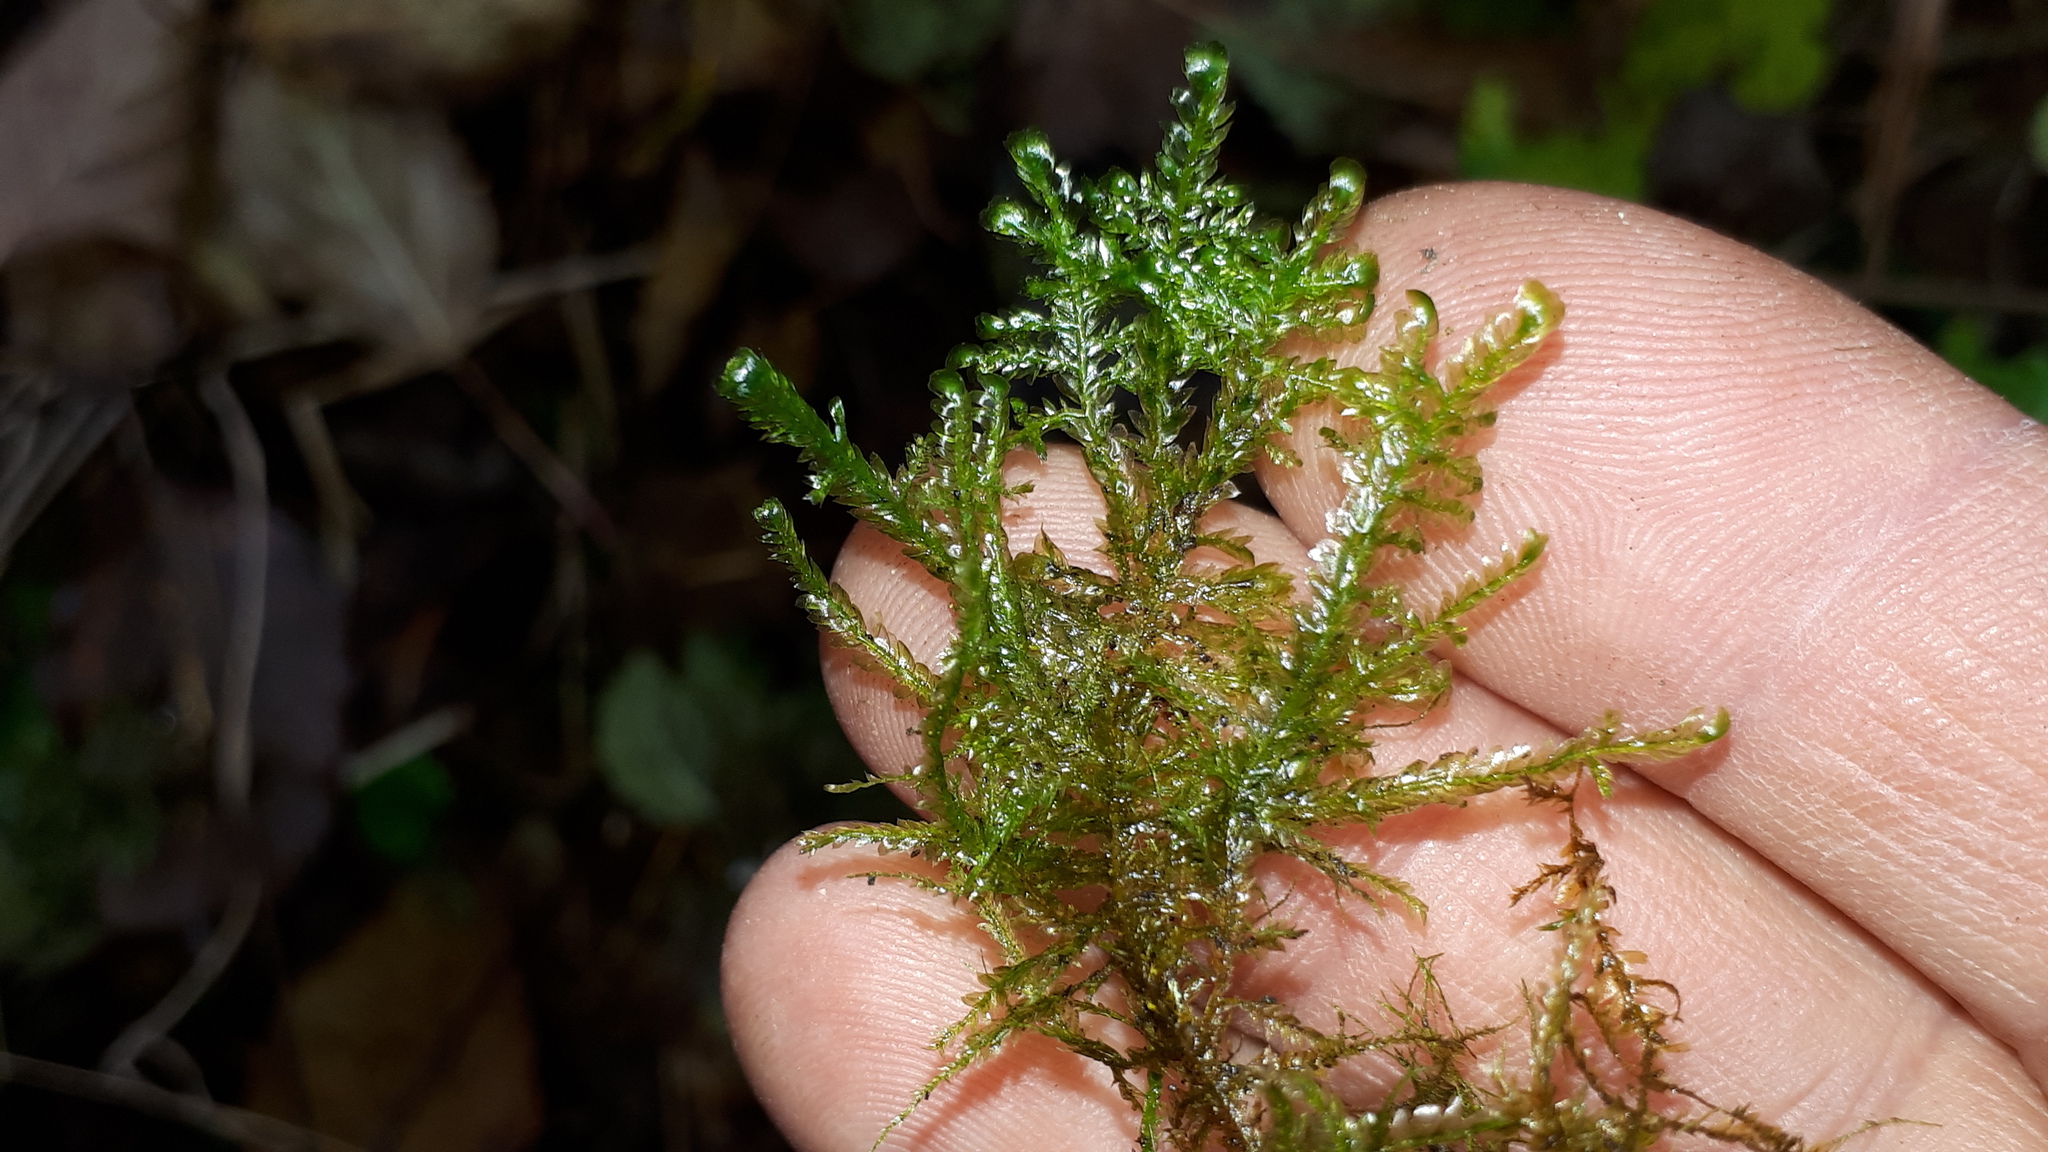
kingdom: Plantae
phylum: Bryophyta
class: Bryopsida
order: Hypnales
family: Neckeraceae
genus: Alleniella
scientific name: Alleniella complanata
